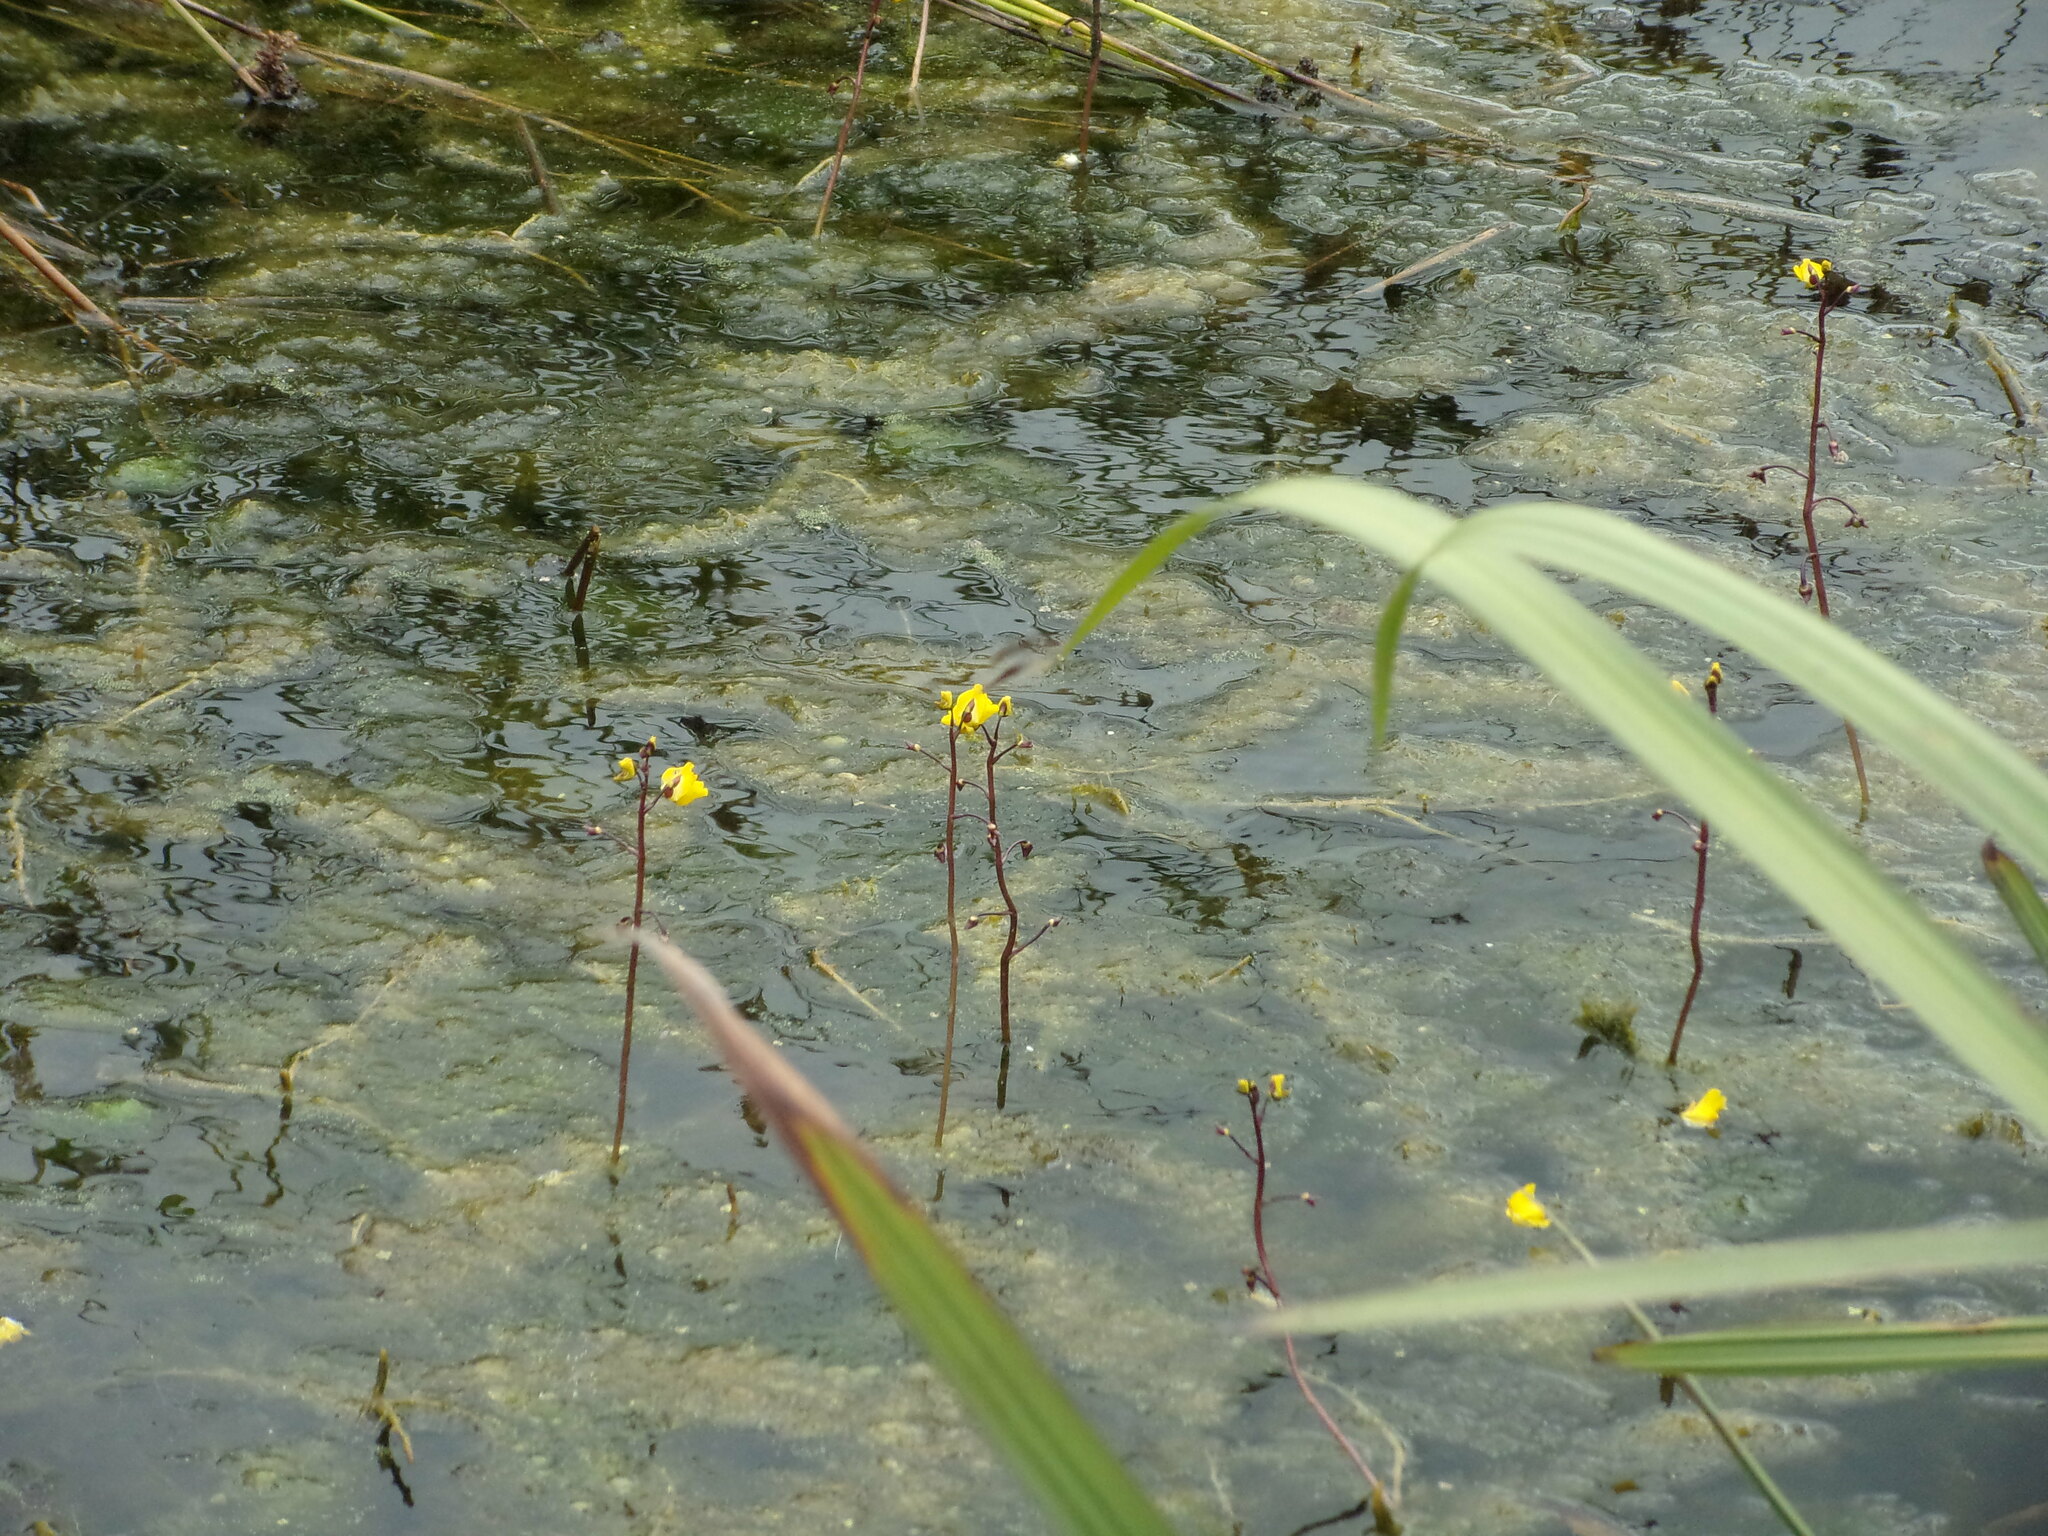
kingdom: Plantae
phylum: Tracheophyta
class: Magnoliopsida
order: Lamiales
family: Lentibulariaceae
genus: Utricularia
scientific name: Utricularia vulgaris
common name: Greater bladderwort
